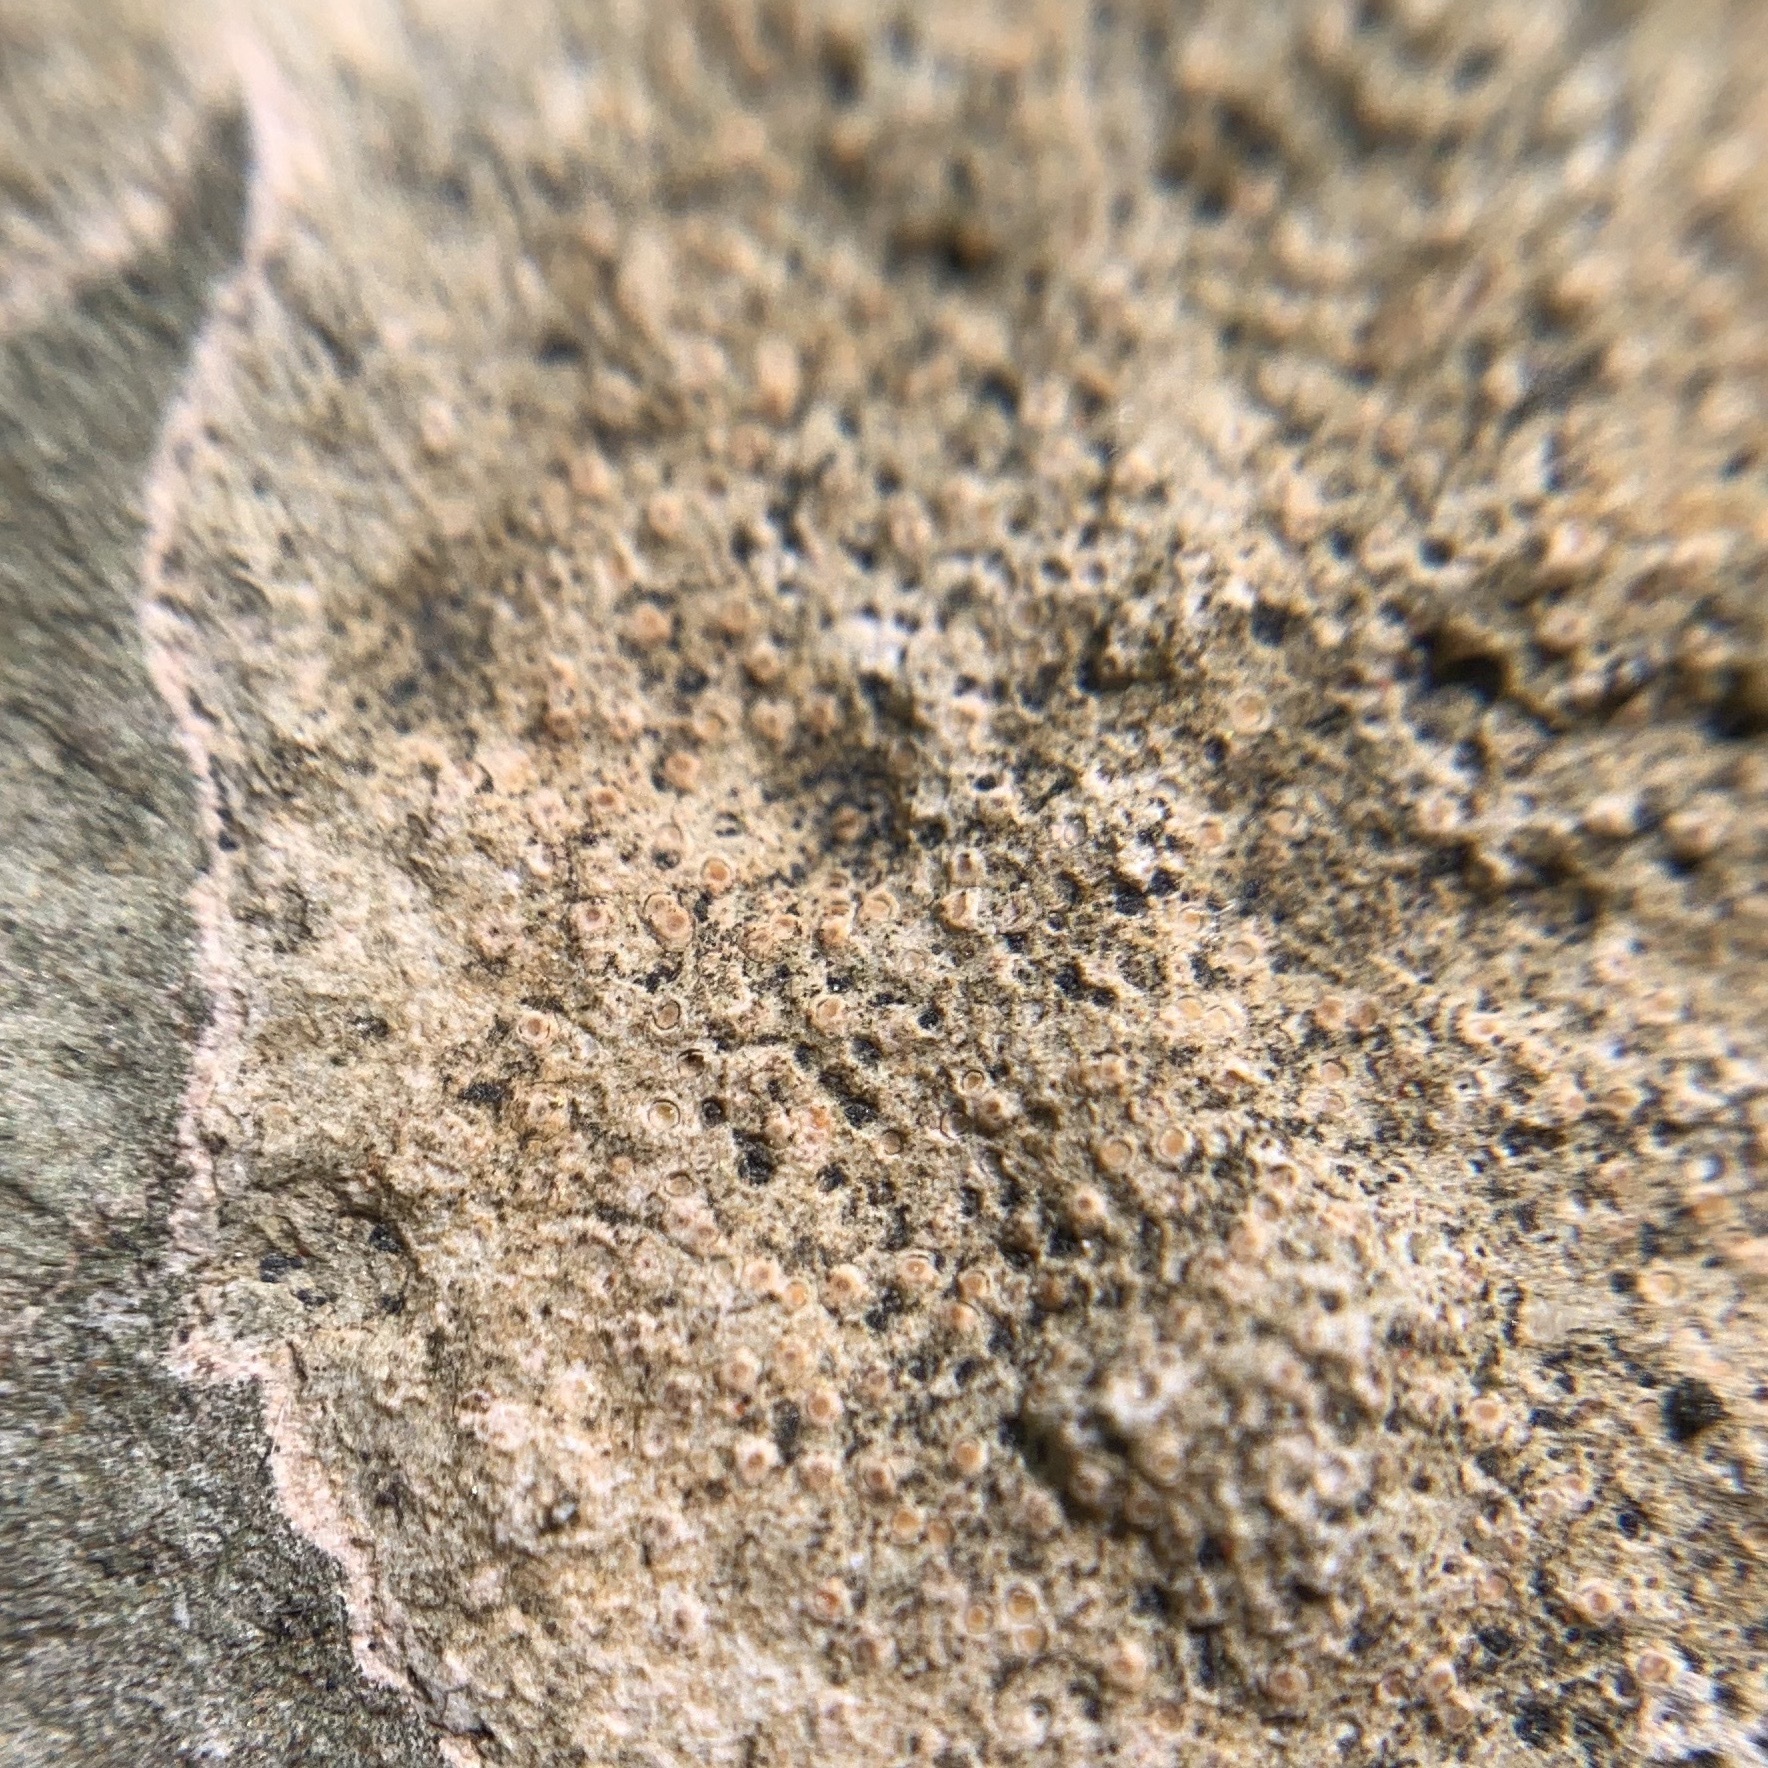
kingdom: Fungi
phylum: Ascomycota
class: Lecanoromycetes
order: Ostropales
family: Stictidaceae
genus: Petractis
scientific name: Petractis farlowii
